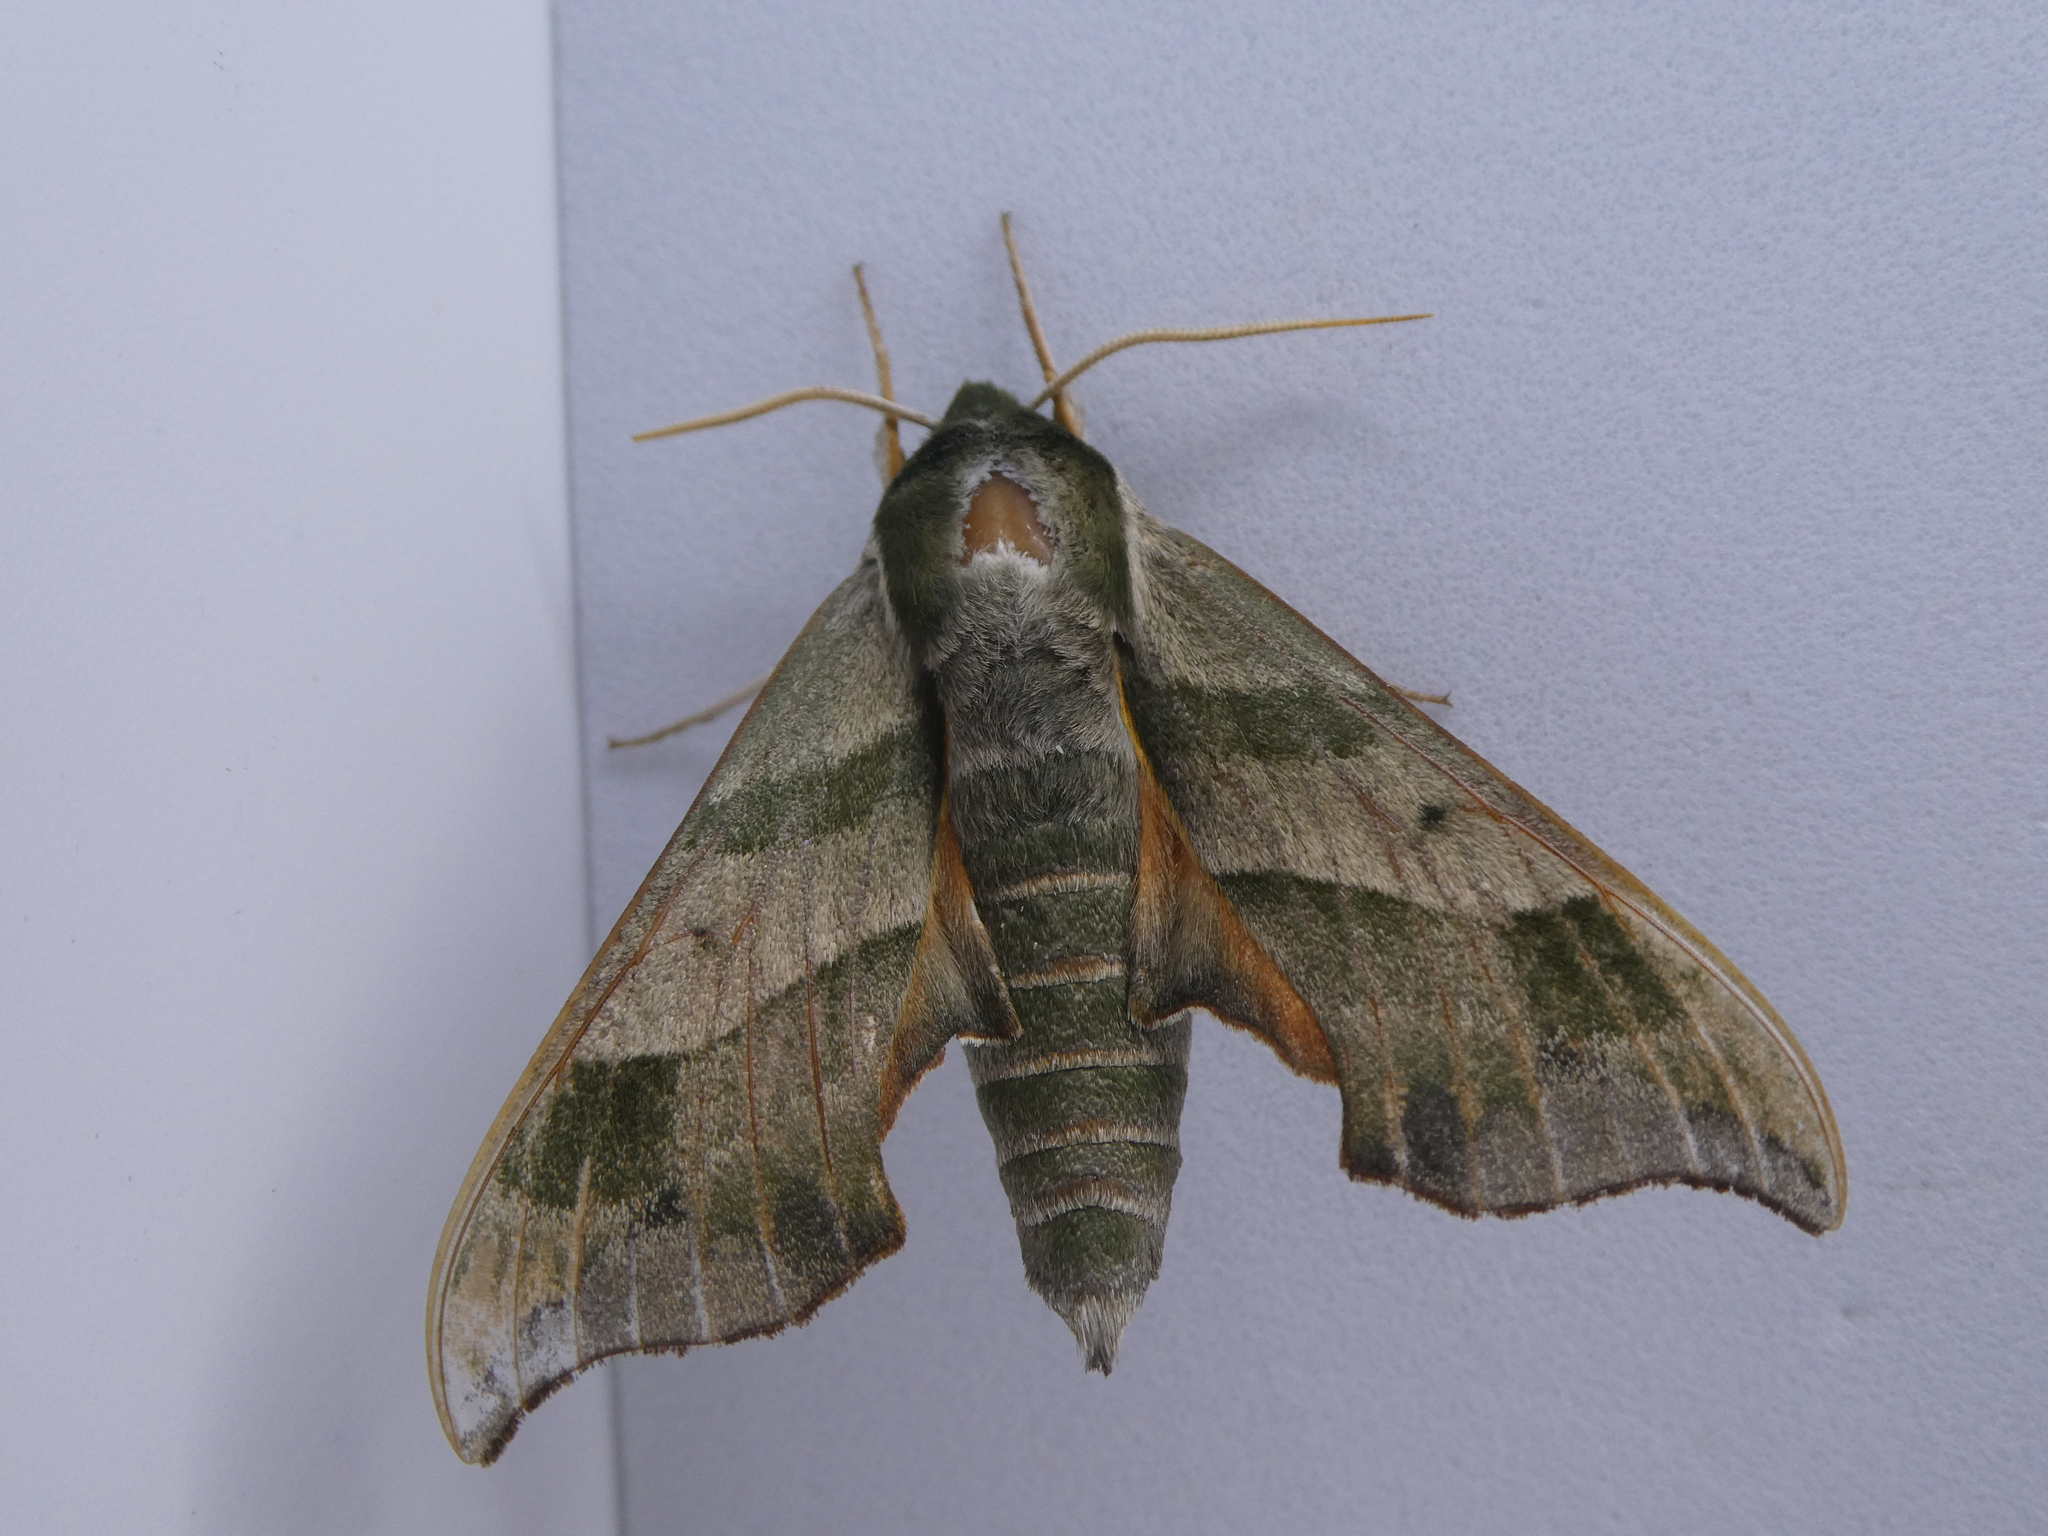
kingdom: Animalia
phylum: Arthropoda
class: Insecta
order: Lepidoptera
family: Sphingidae
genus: Darapsa
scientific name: Darapsa myron
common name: Hog sphinx
